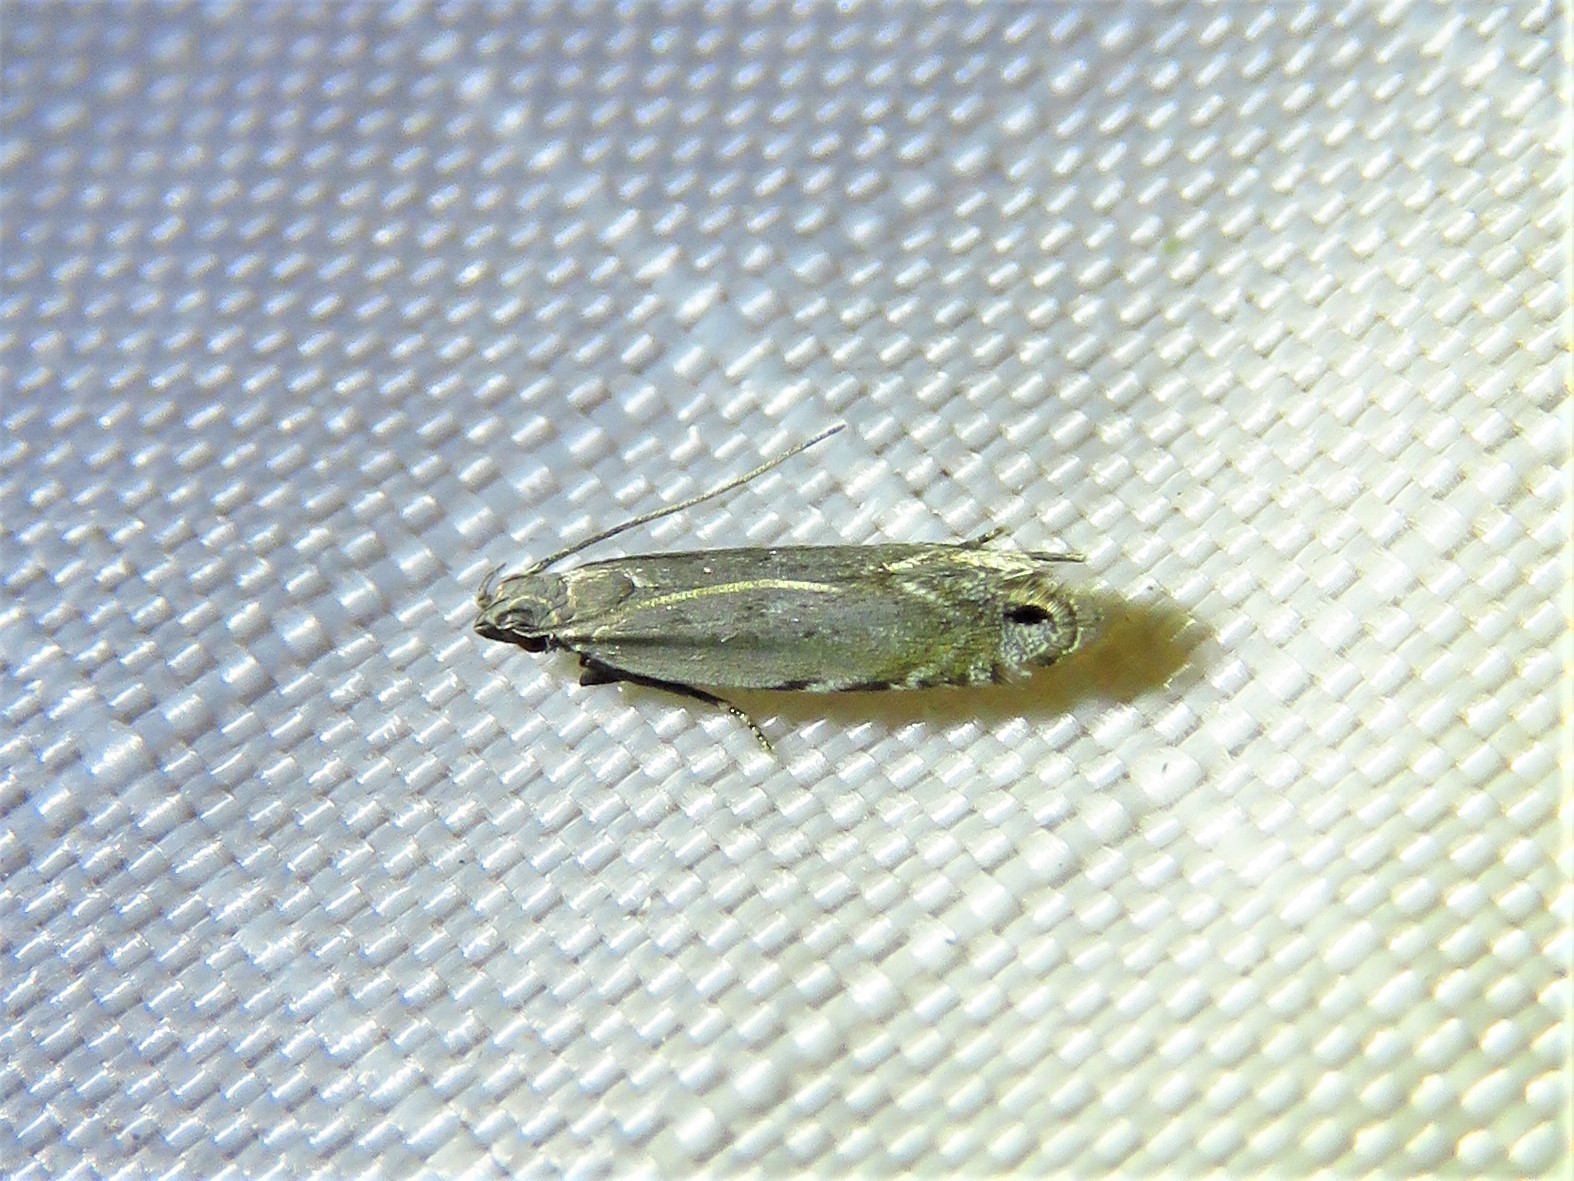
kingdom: Animalia
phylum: Arthropoda
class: Insecta
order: Lepidoptera
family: Gelechiidae
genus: Battaristis
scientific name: Battaristis concinnusella
